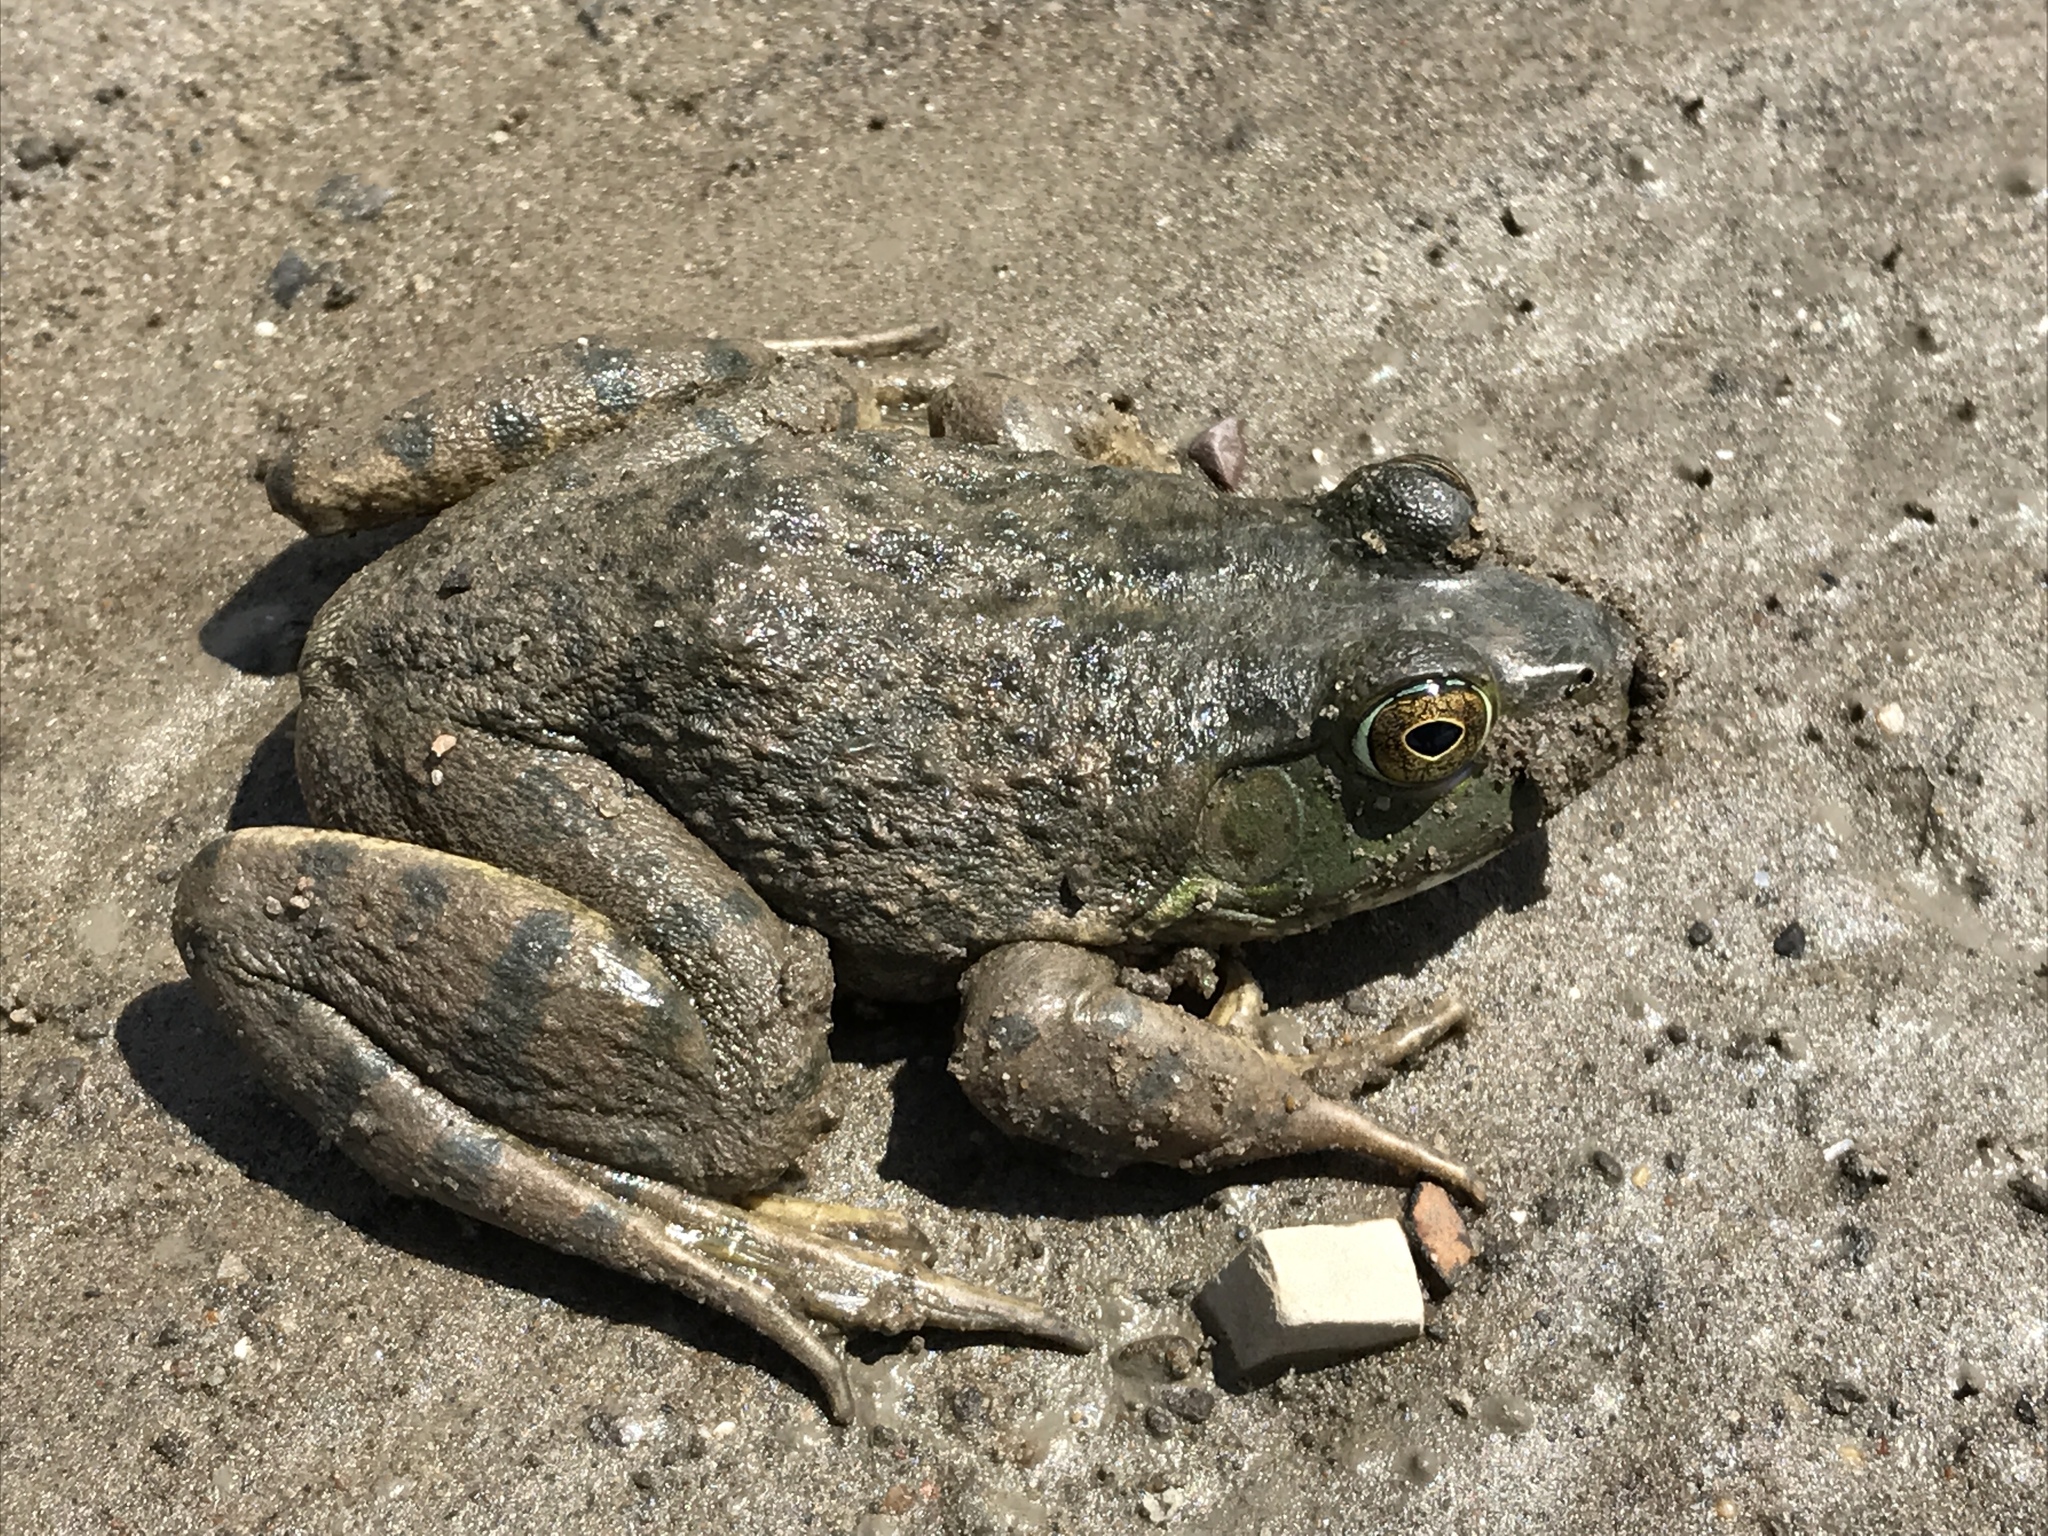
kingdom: Animalia
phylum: Chordata
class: Amphibia
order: Anura
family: Ranidae
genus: Lithobates
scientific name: Lithobates catesbeianus
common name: American bullfrog
